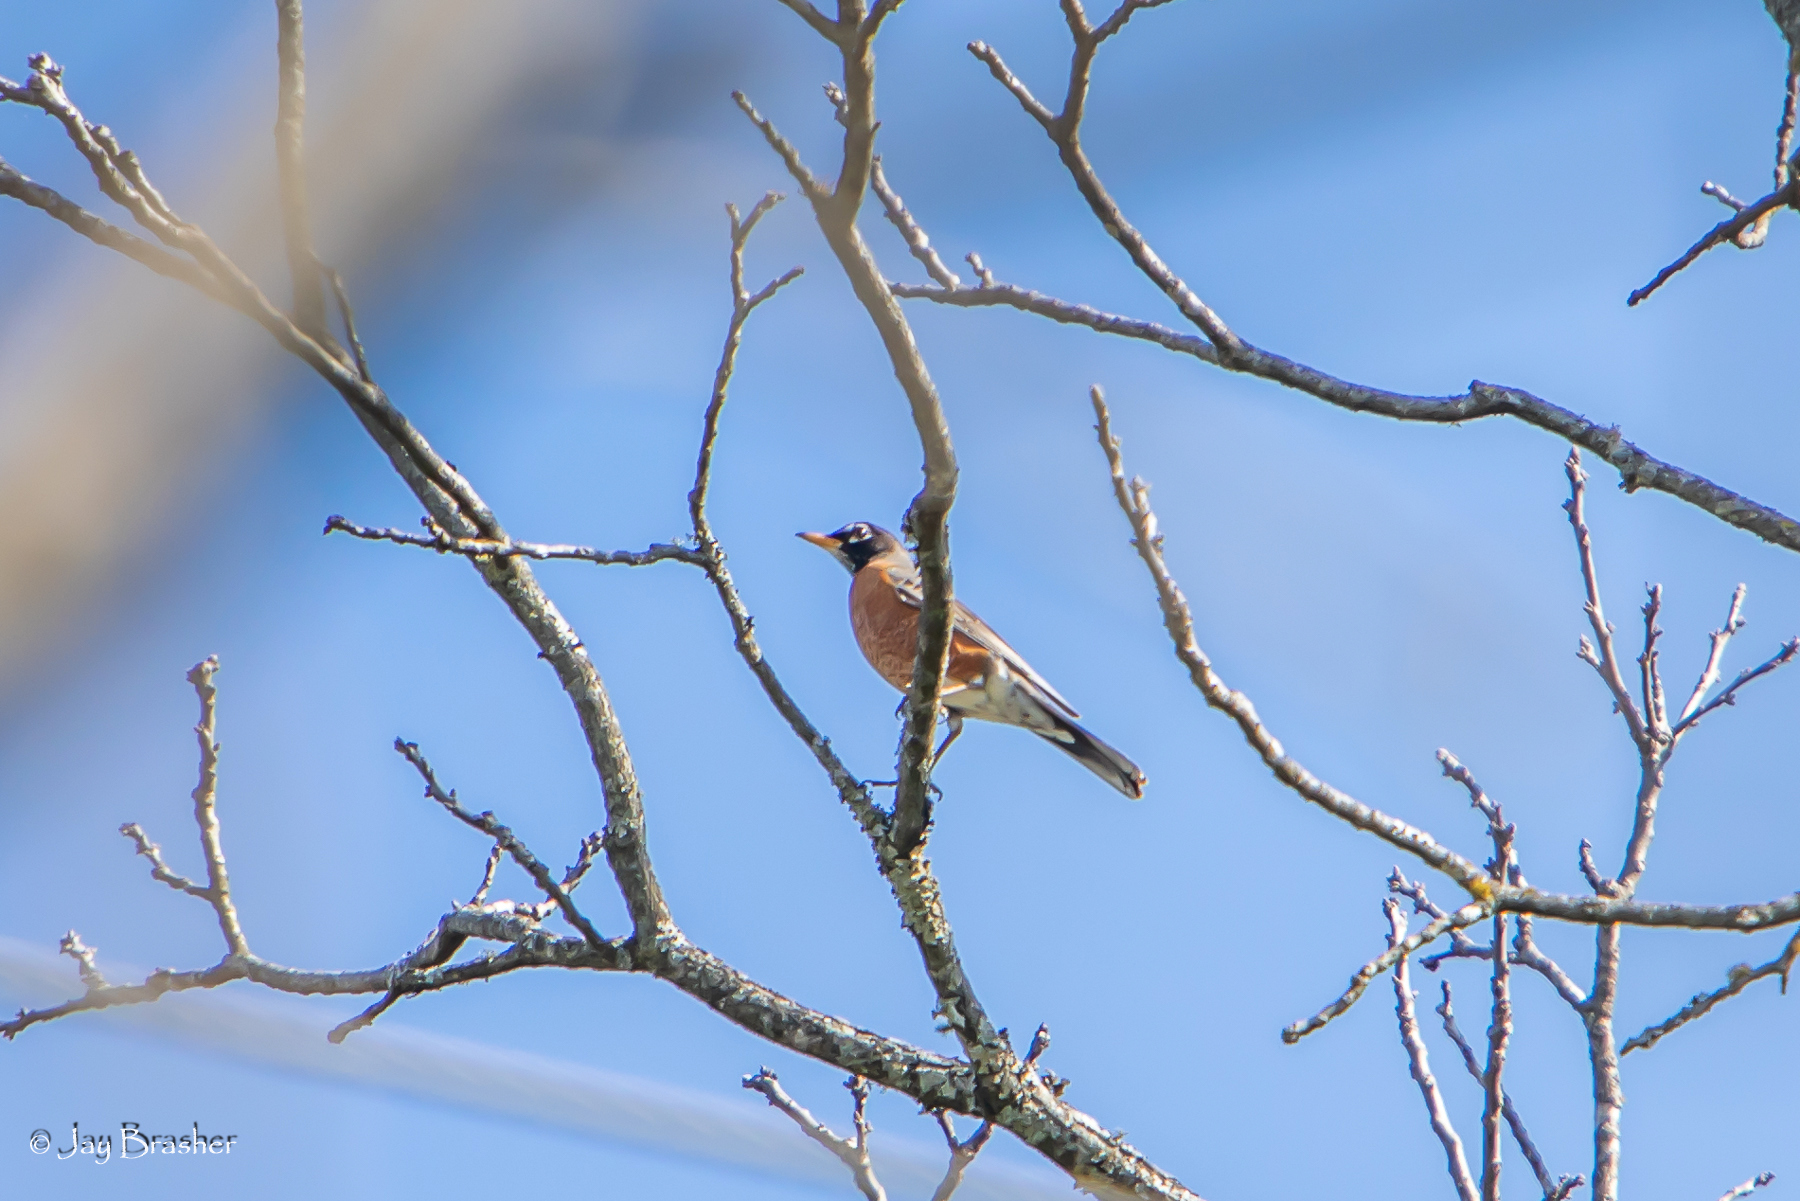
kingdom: Animalia
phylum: Chordata
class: Aves
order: Passeriformes
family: Turdidae
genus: Turdus
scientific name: Turdus migratorius
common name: American robin
